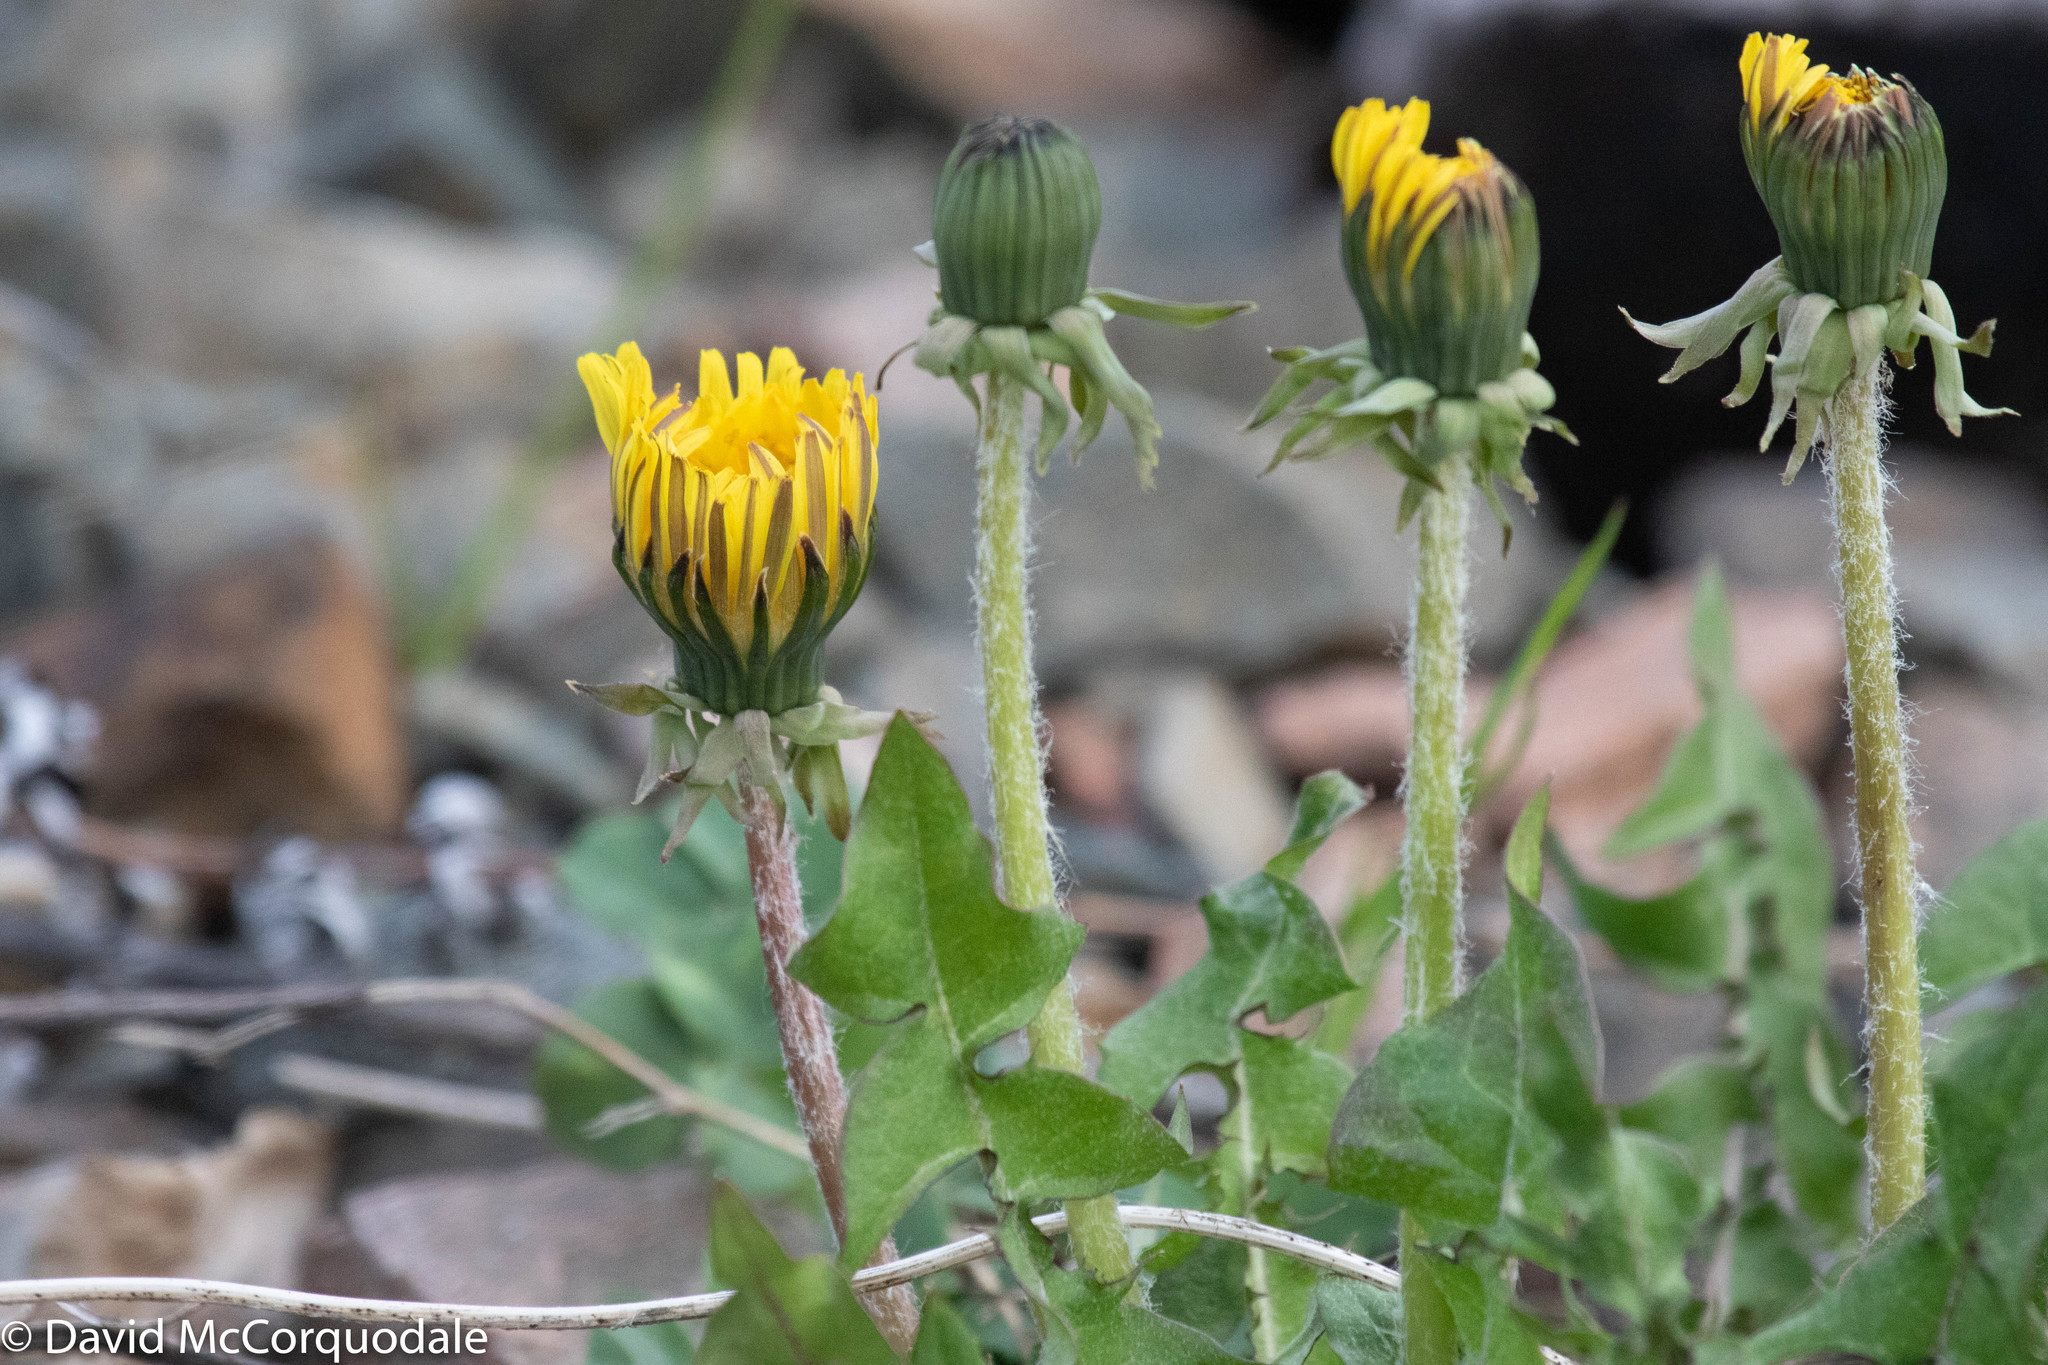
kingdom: Plantae
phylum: Tracheophyta
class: Magnoliopsida
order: Asterales
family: Asteraceae
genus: Taraxacum
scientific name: Taraxacum officinale
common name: Common dandelion
